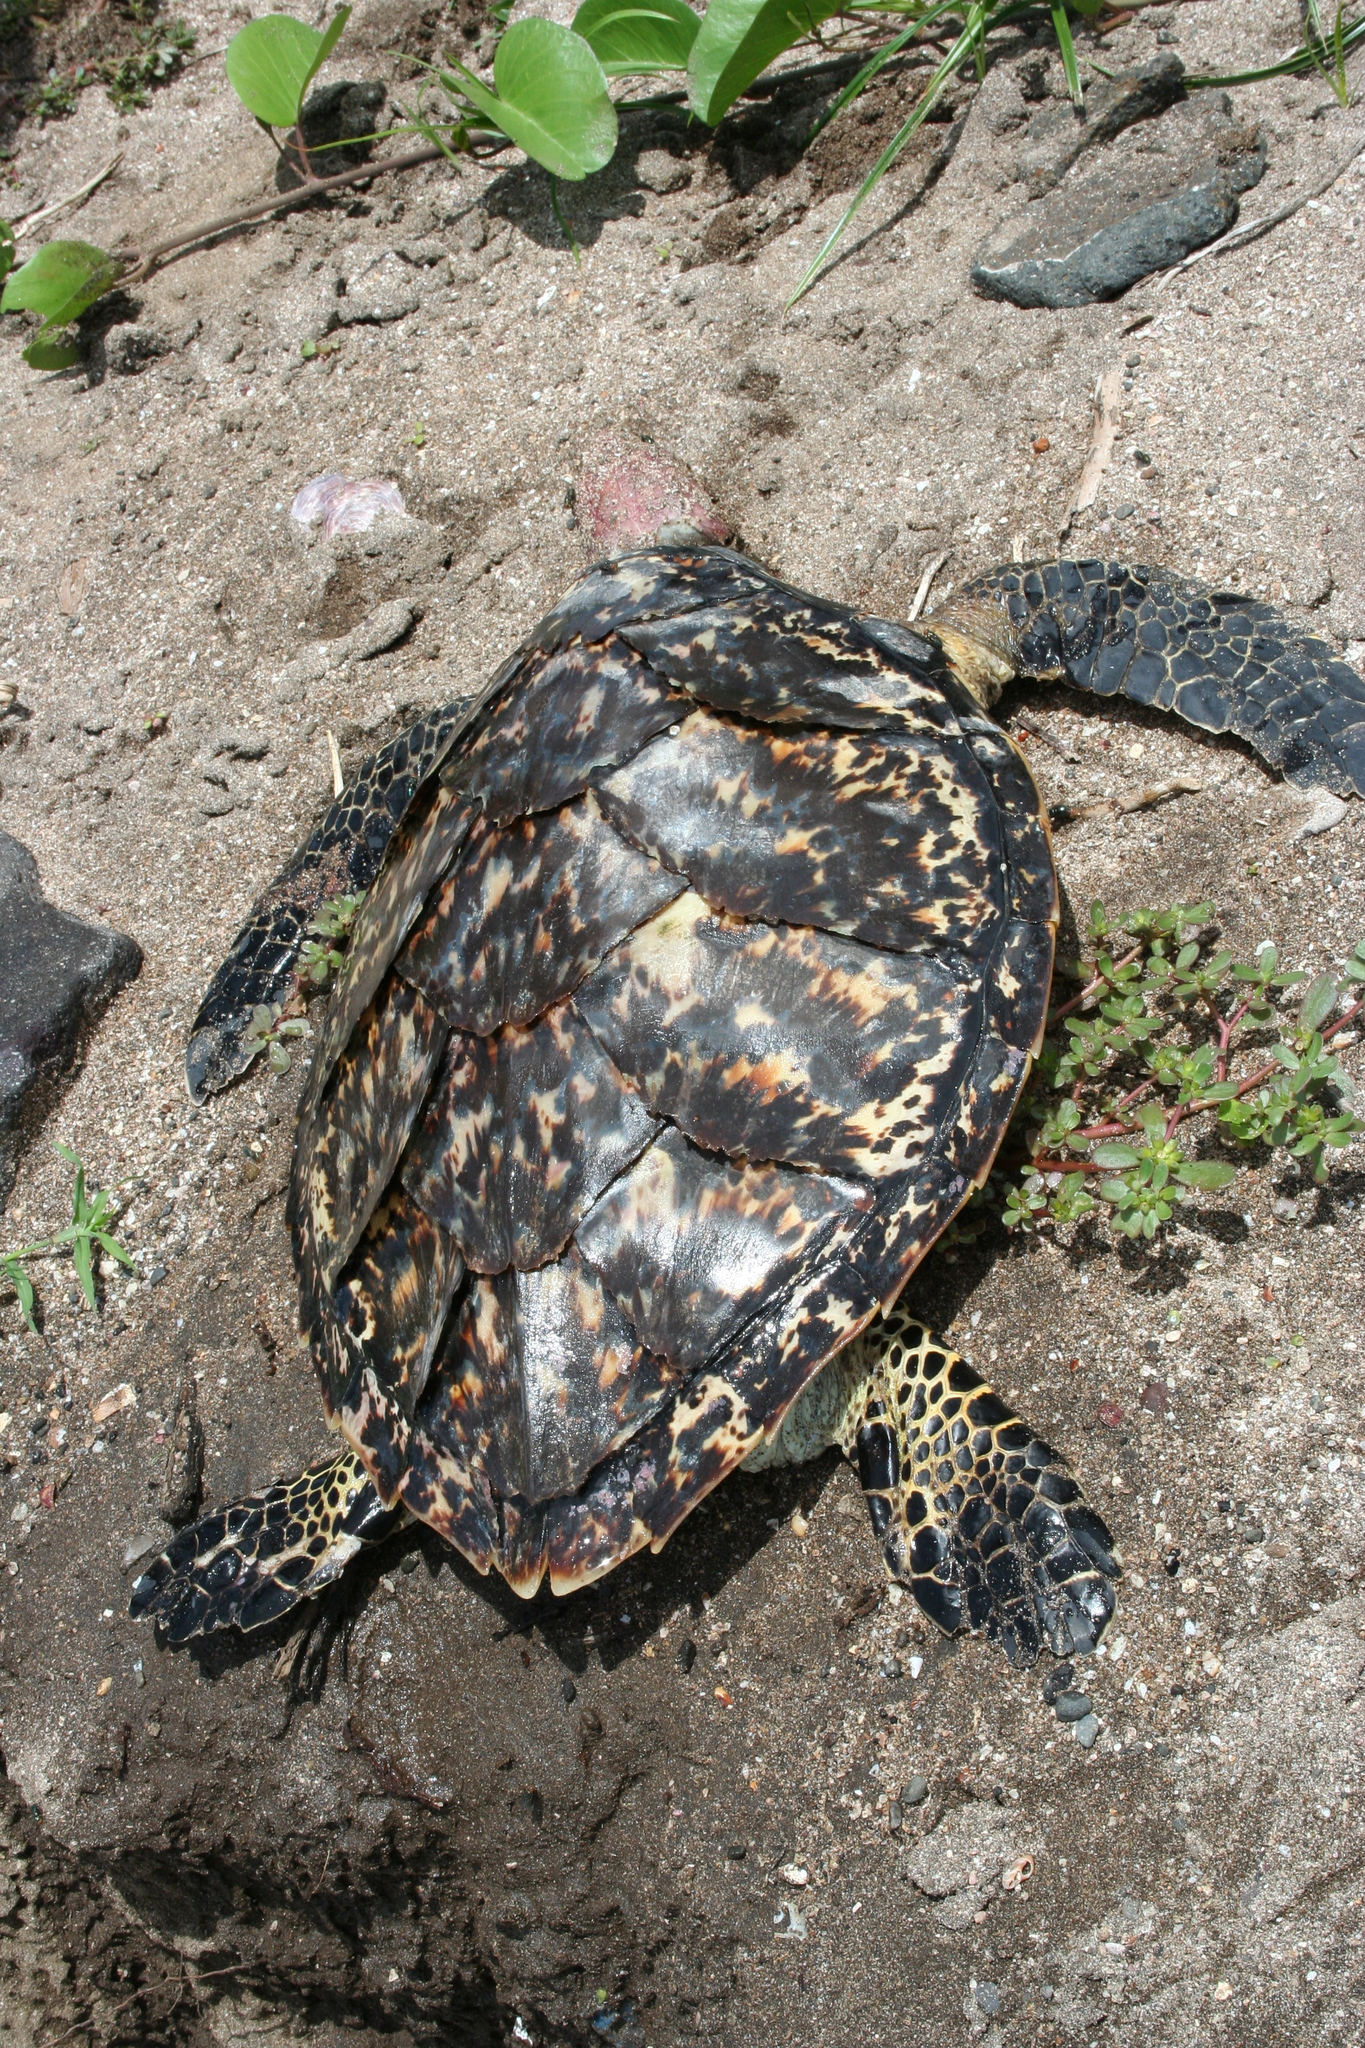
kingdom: Animalia
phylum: Chordata
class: Testudines
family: Cheloniidae
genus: Eretmochelys
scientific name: Eretmochelys imbricata
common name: Hawksbill turtle
